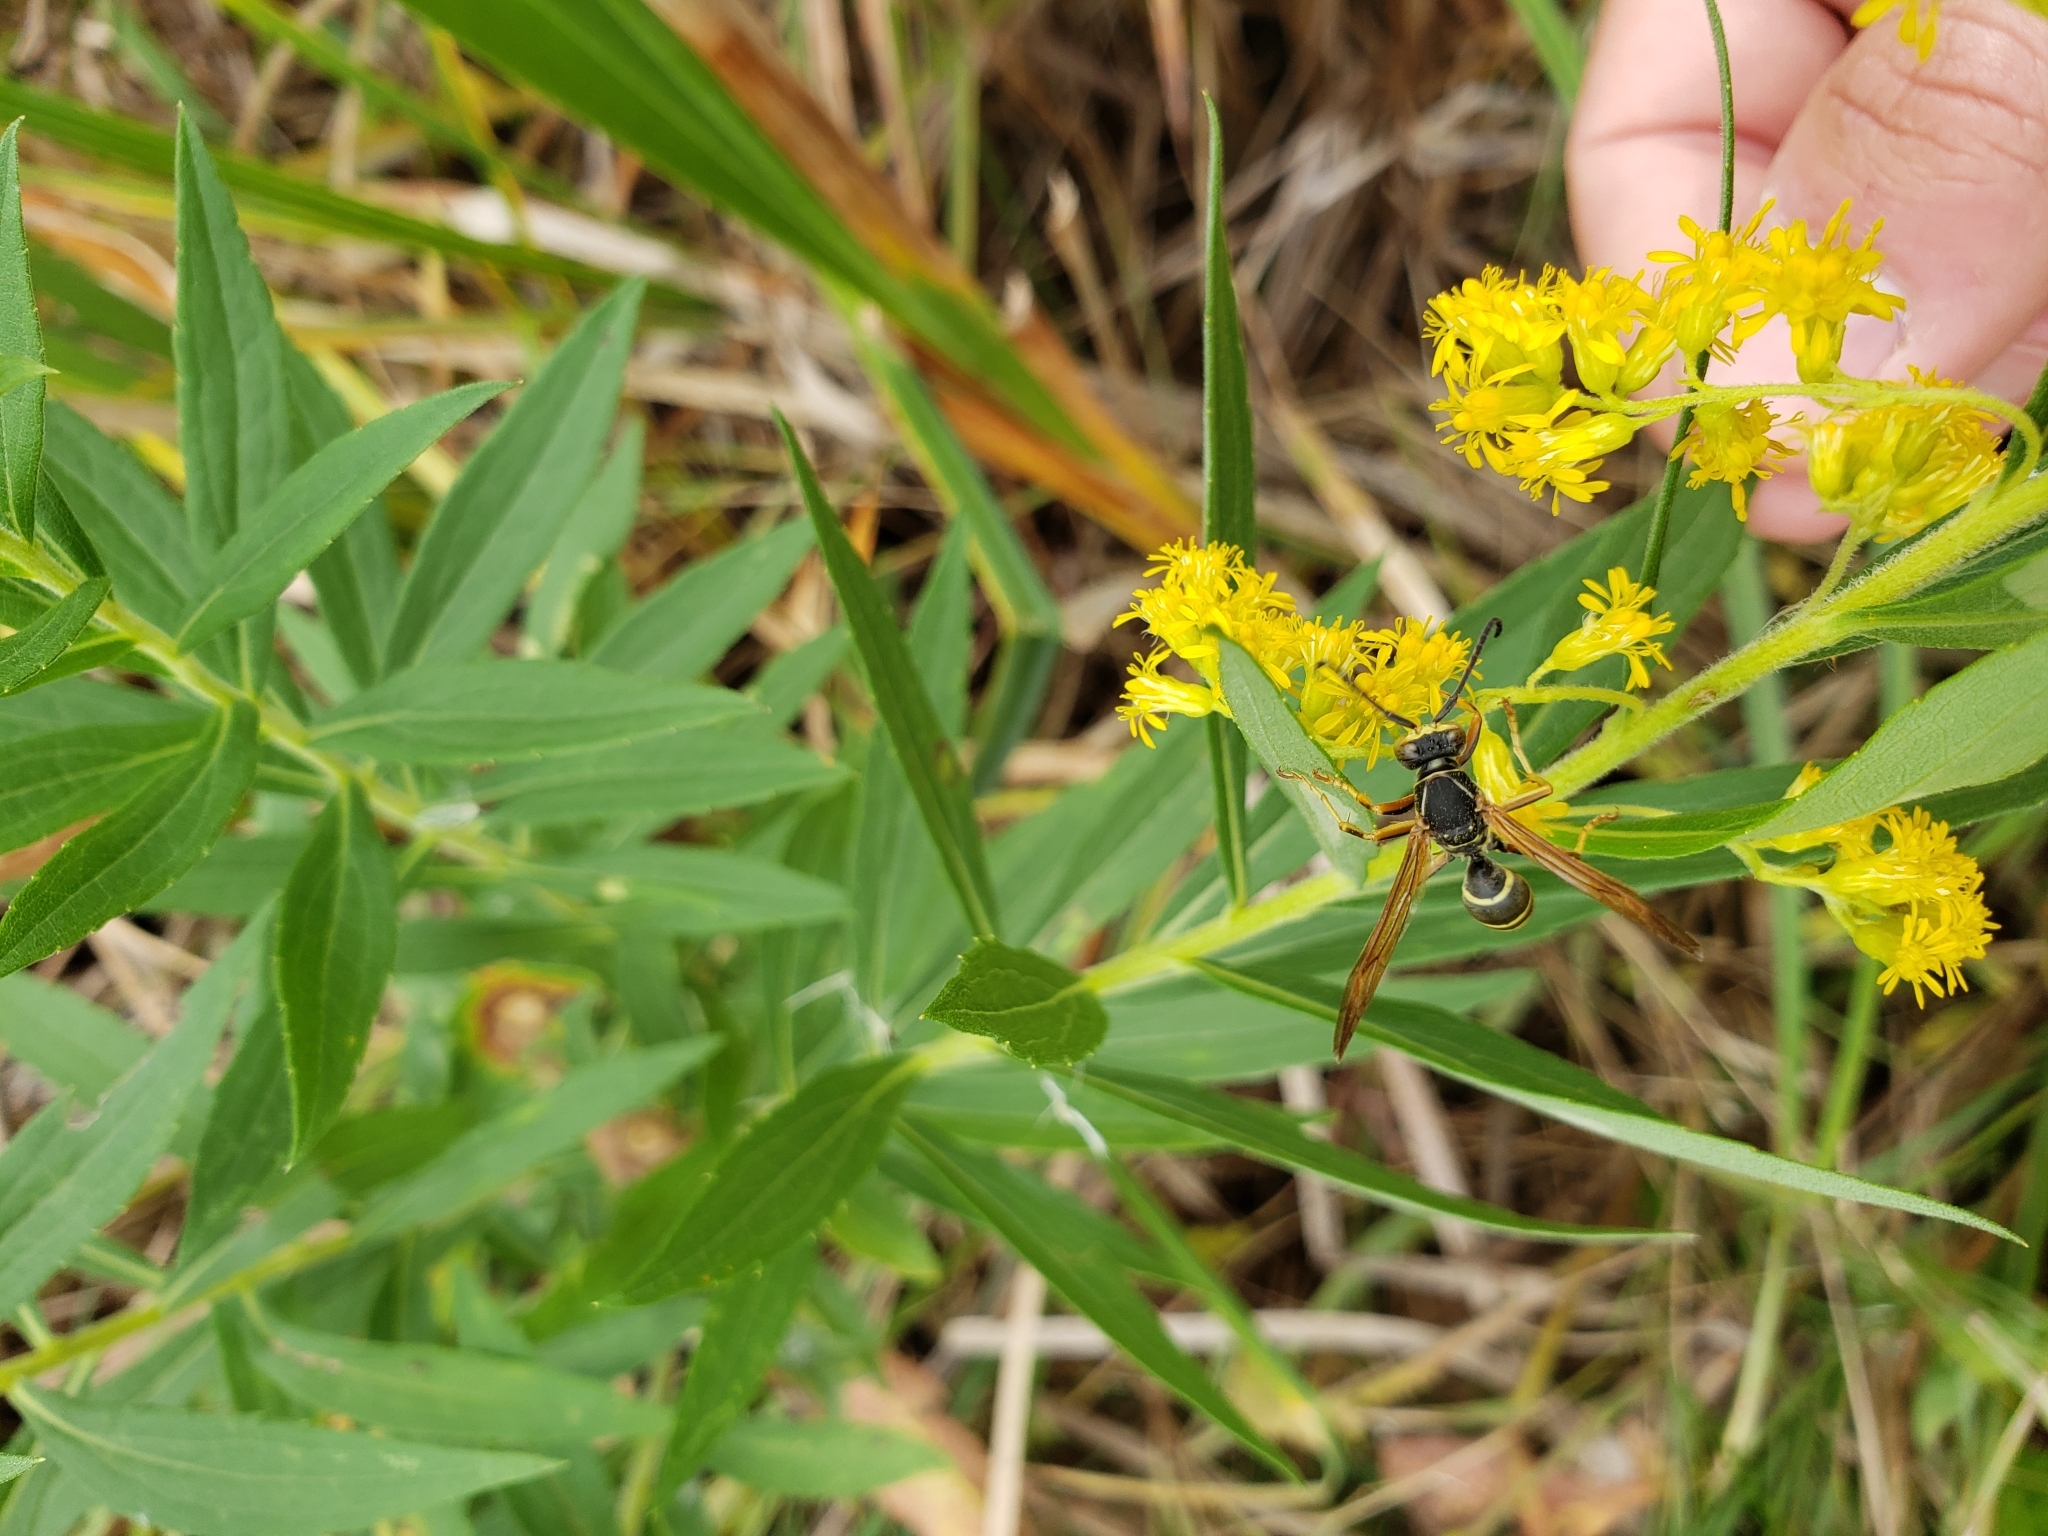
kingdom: Animalia
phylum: Arthropoda
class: Insecta
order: Hymenoptera
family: Eumenidae
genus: Polistes
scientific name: Polistes fuscatus
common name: Dark paper wasp
